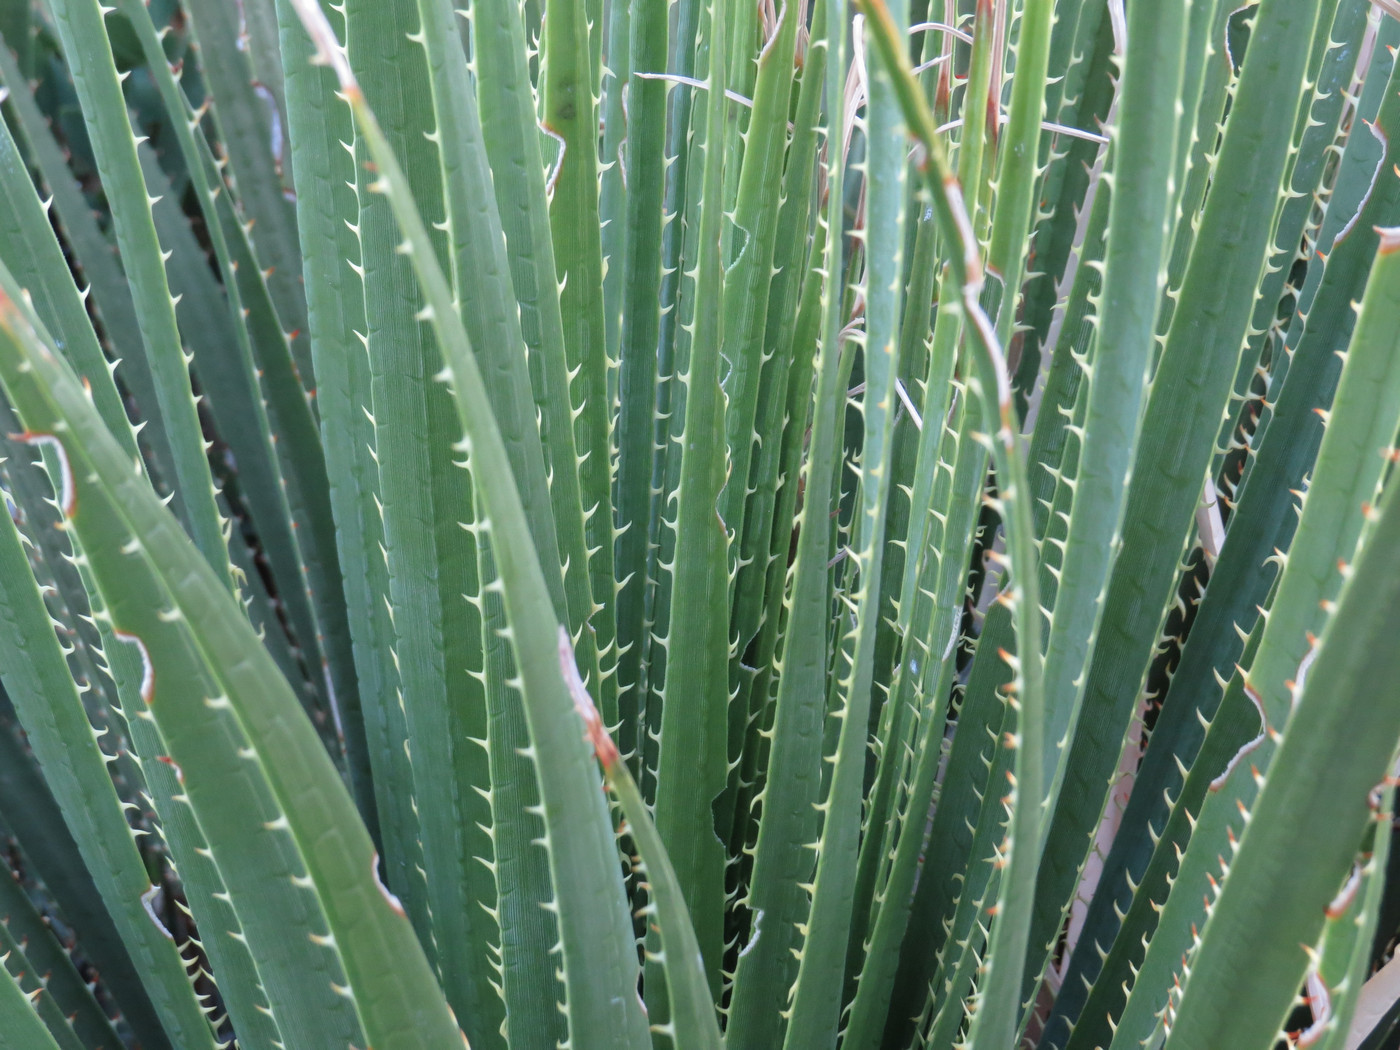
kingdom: Plantae
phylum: Tracheophyta
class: Liliopsida
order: Asparagales
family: Asparagaceae
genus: Dasylirion
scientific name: Dasylirion wheeleri
